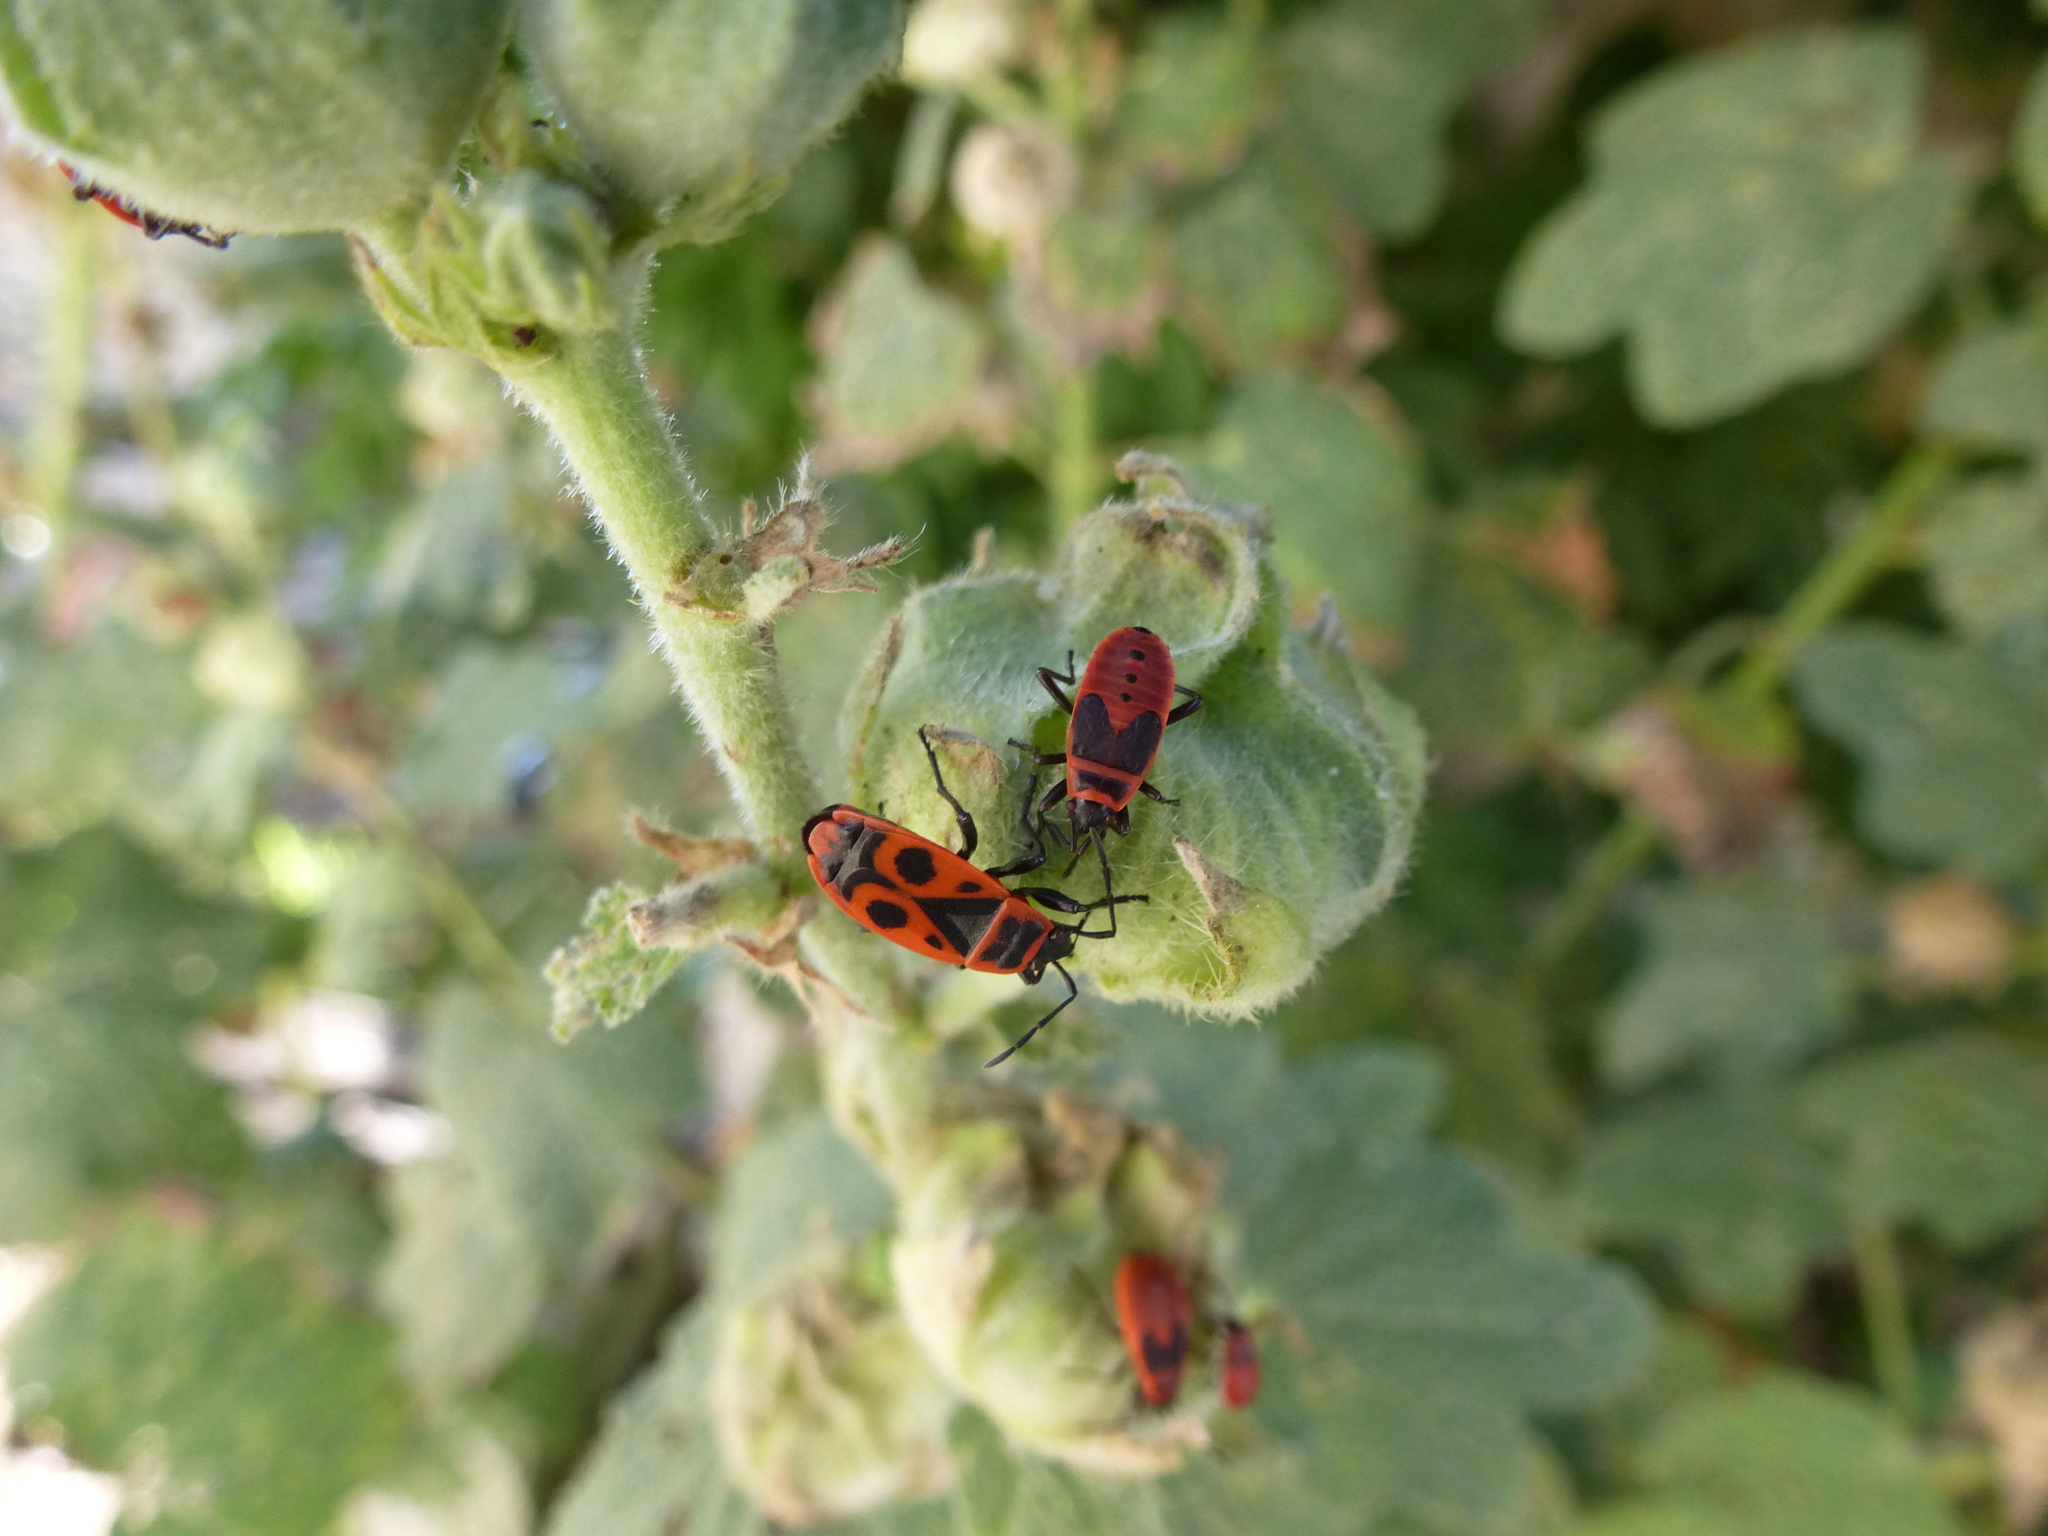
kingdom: Animalia
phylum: Arthropoda
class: Insecta
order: Hemiptera
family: Pyrrhocoridae
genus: Pyrrhocoris
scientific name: Pyrrhocoris apterus
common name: Firebug
